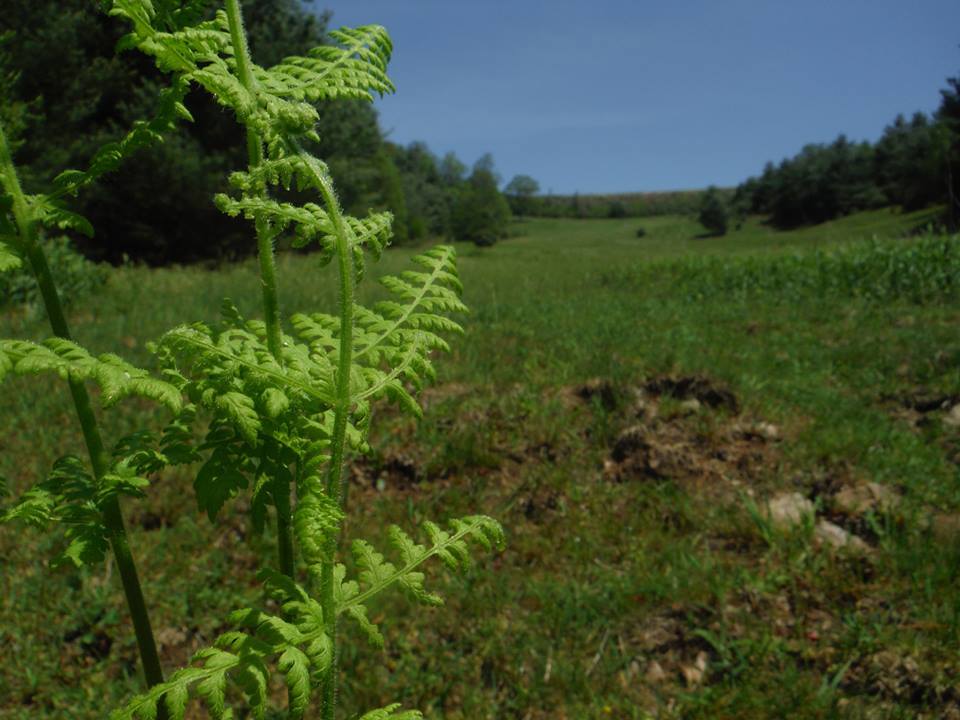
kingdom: Plantae
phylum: Tracheophyta
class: Polypodiopsida
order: Polypodiales
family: Dennstaedtiaceae
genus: Sitobolium
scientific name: Sitobolium punctilobum
